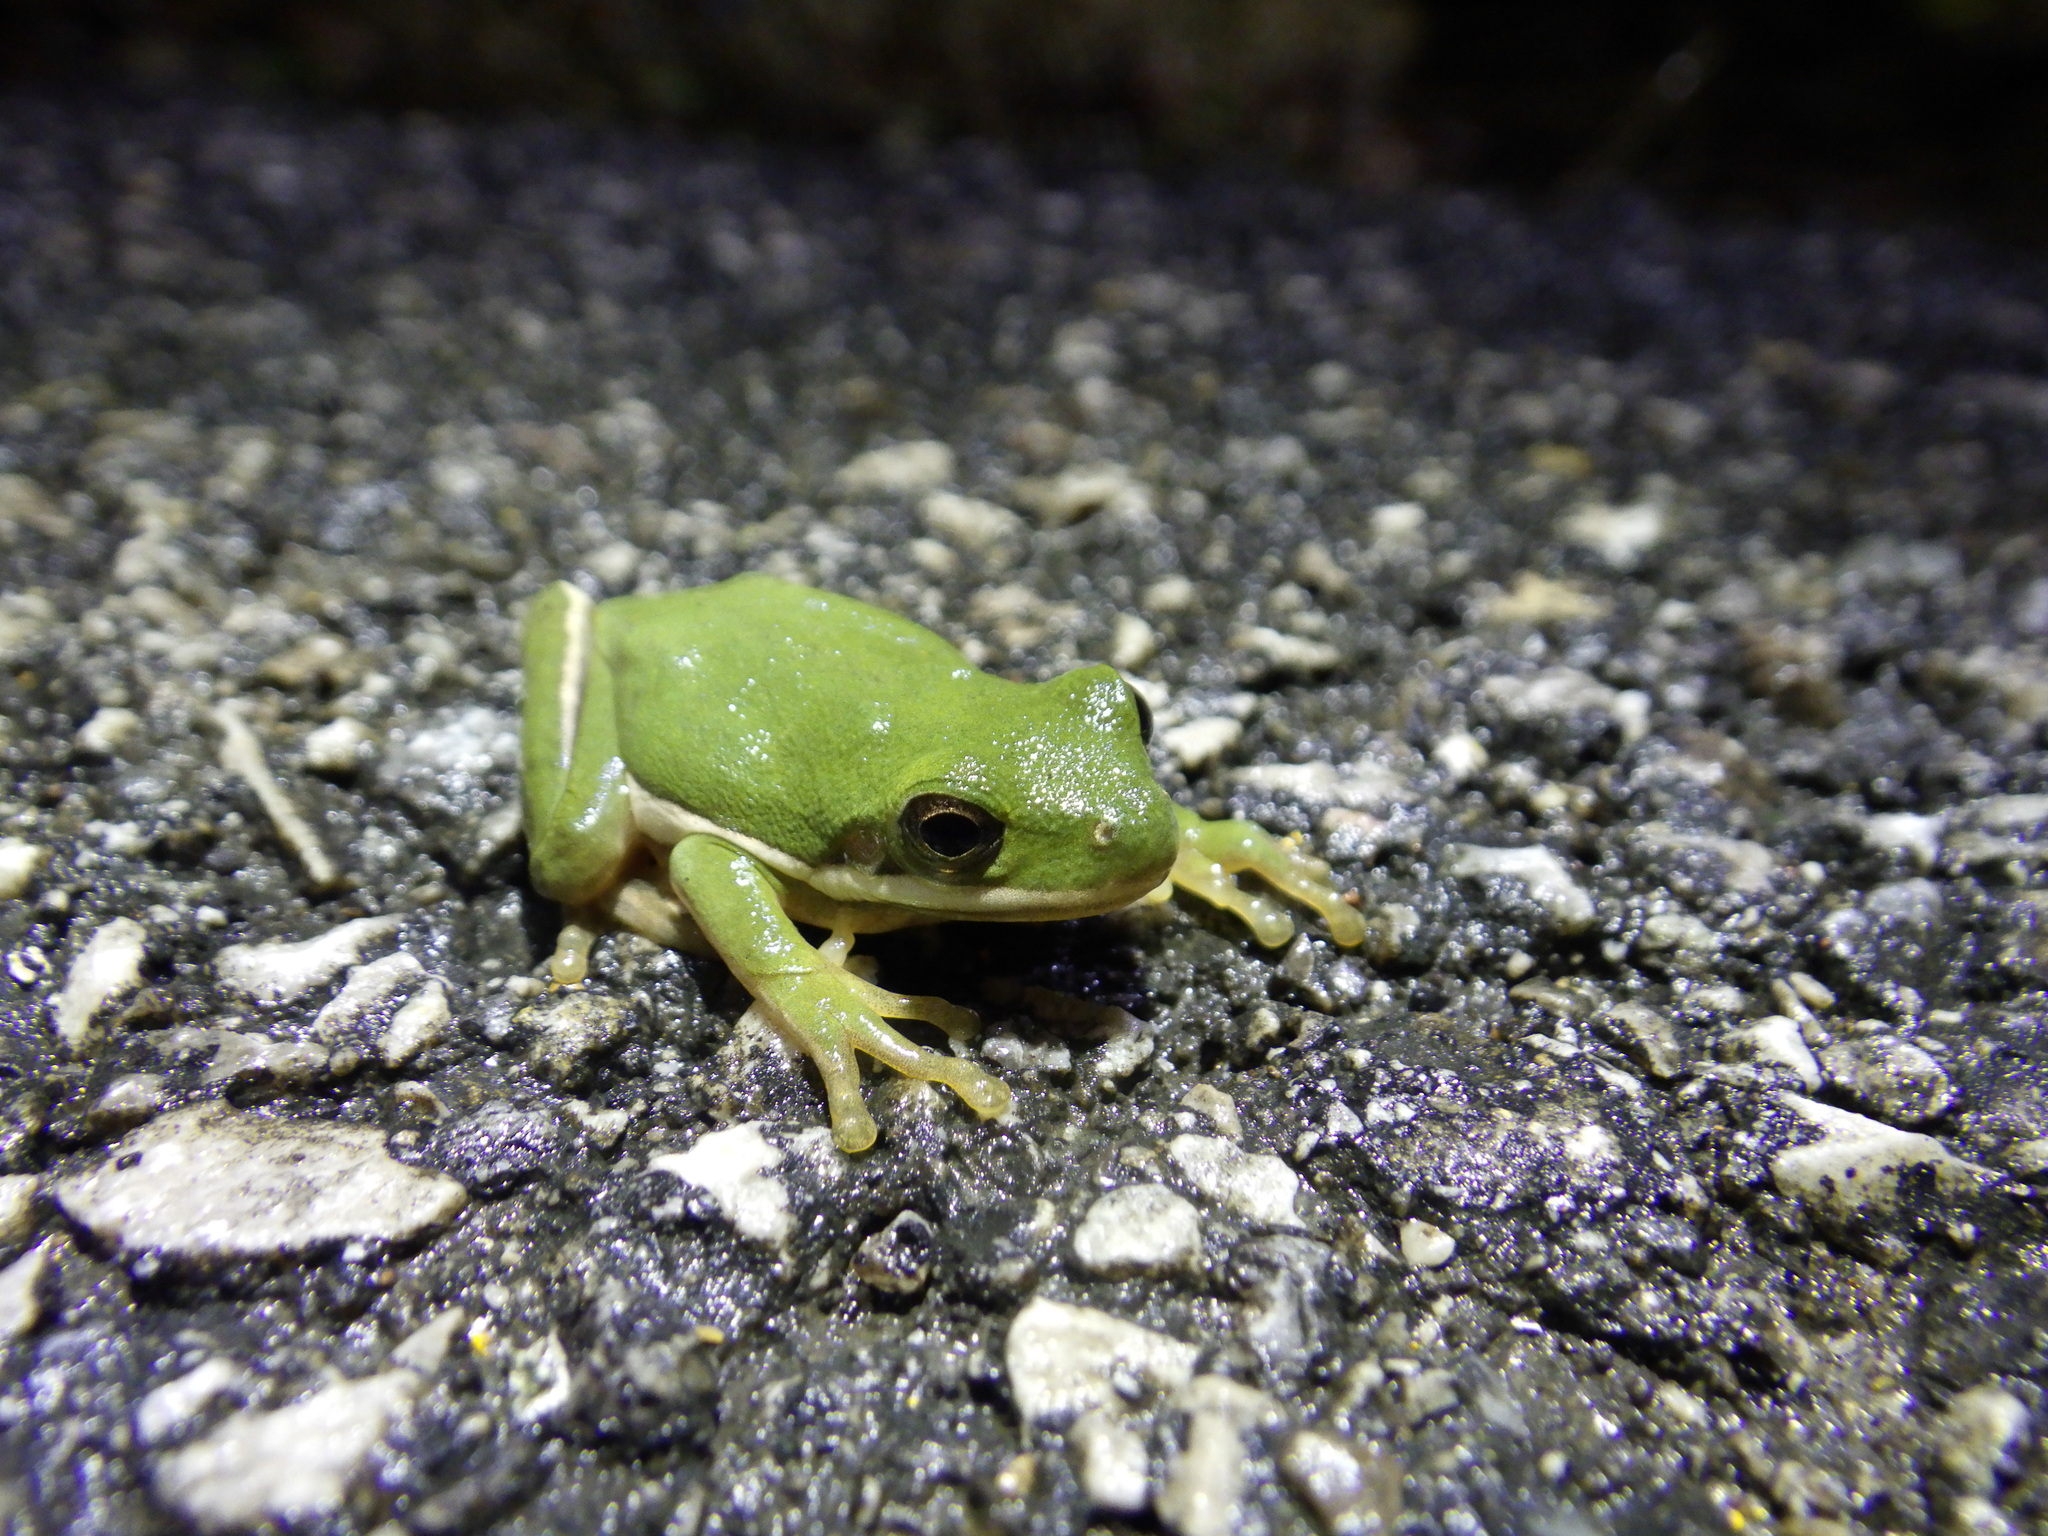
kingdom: Animalia
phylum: Chordata
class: Amphibia
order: Anura
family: Hylidae
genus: Dryophytes
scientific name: Dryophytes cinereus
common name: Green treefrog
